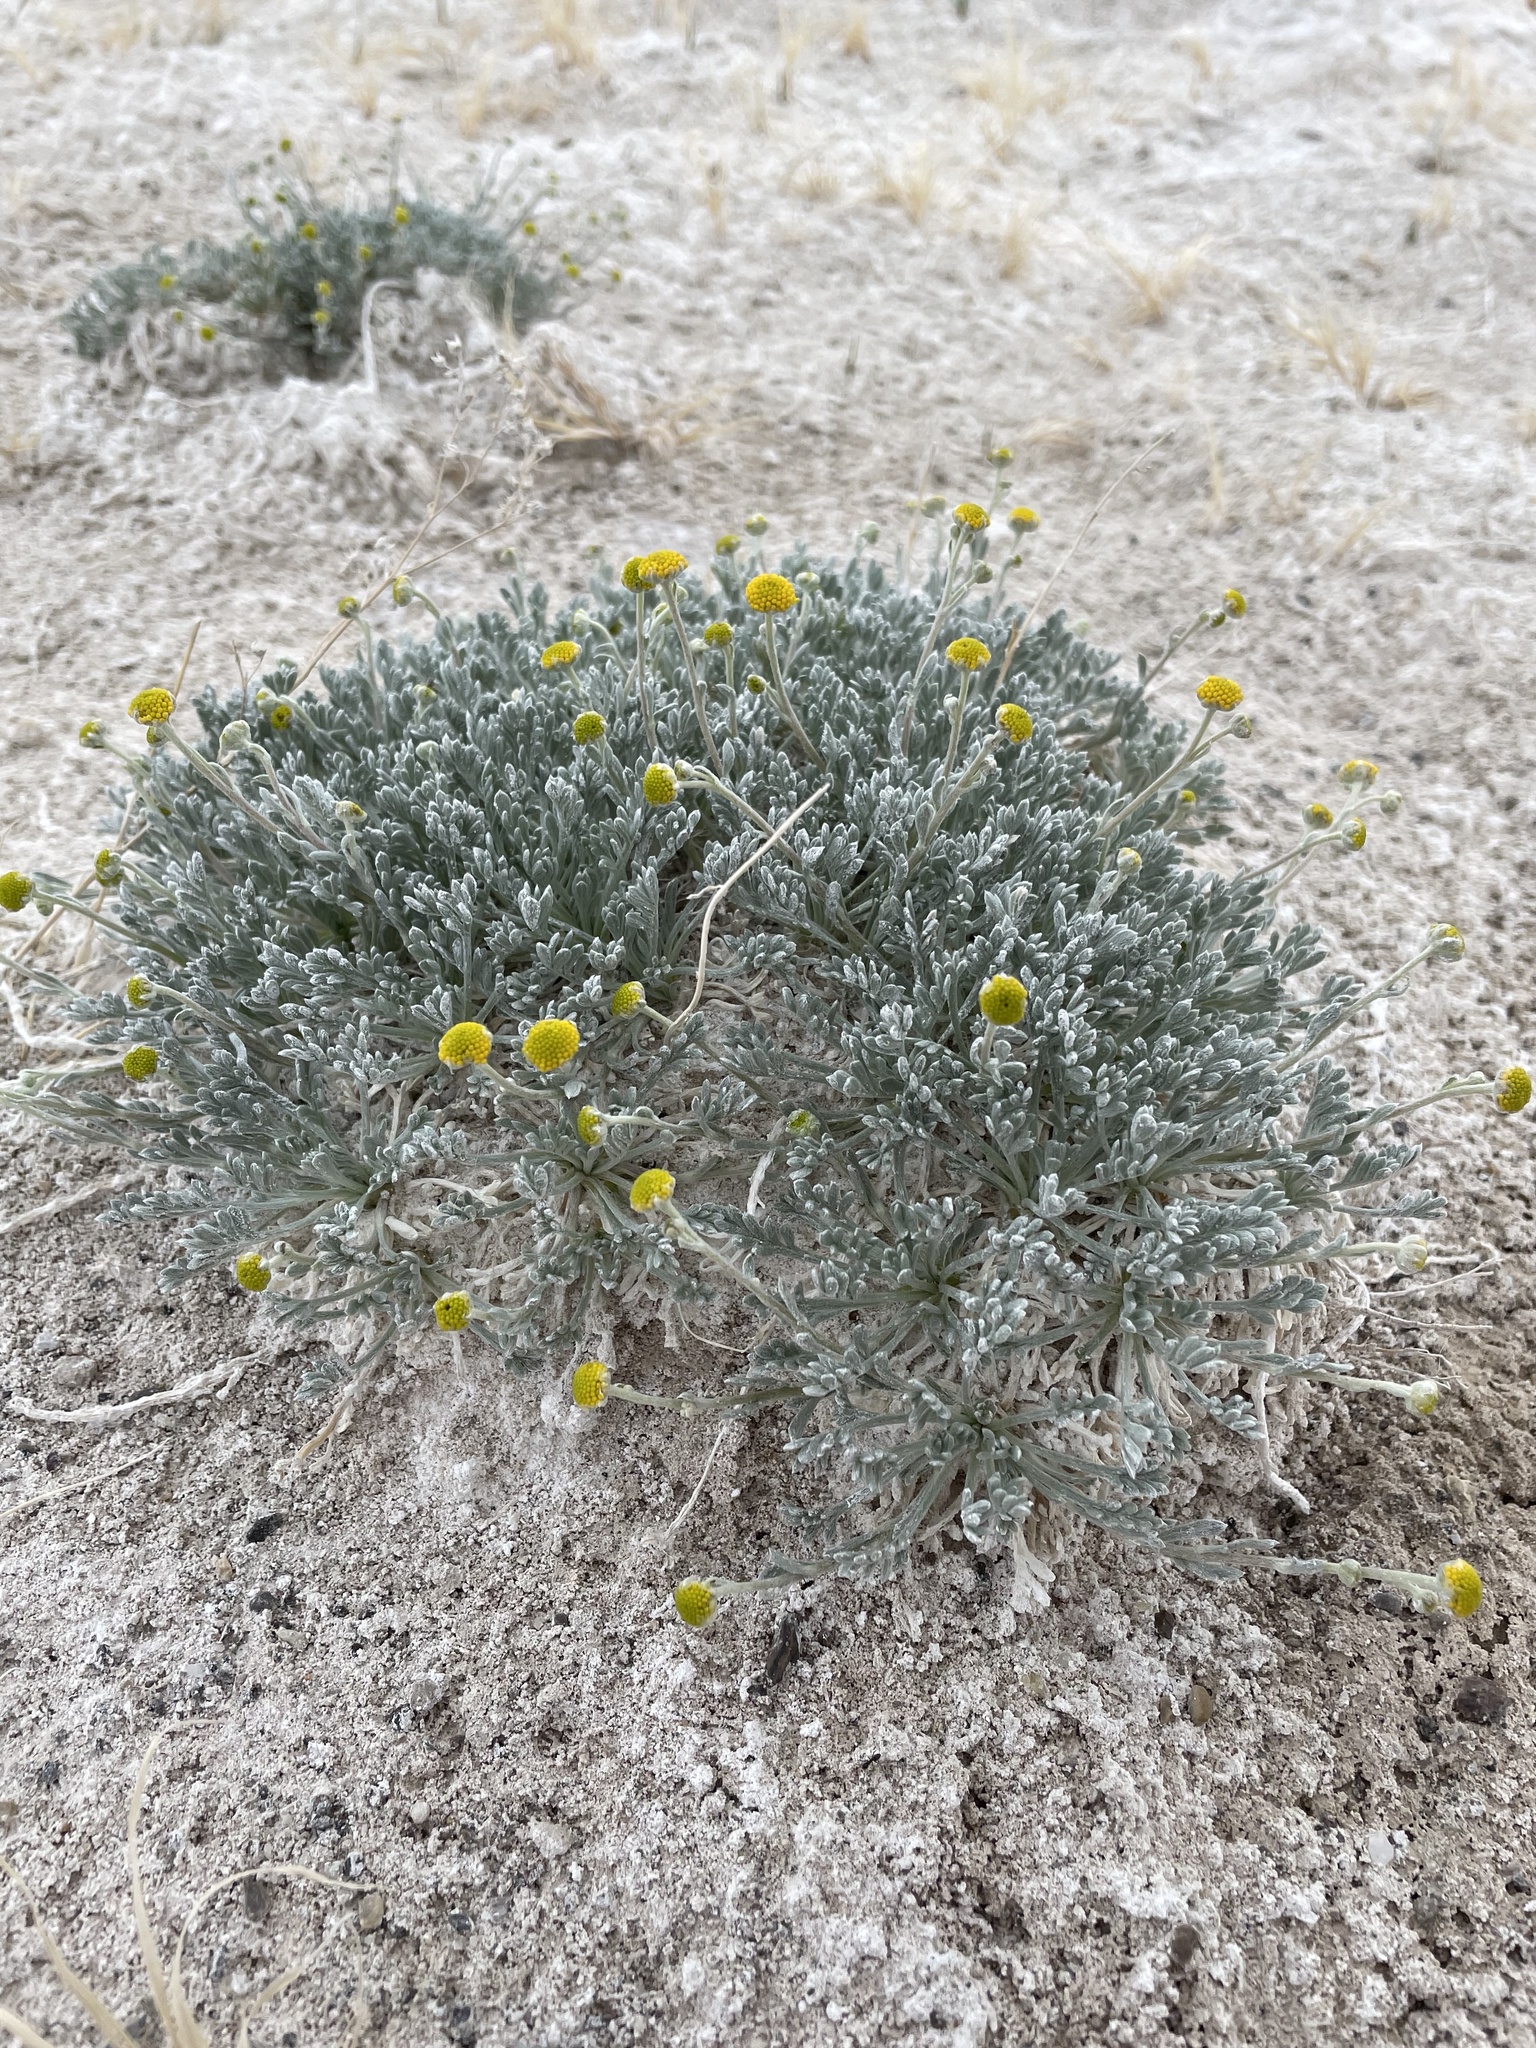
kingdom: Plantae
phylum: Tracheophyta
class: Magnoliopsida
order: Asterales
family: Asteraceae
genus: Artemisia
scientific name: Artemisia potentilloides
